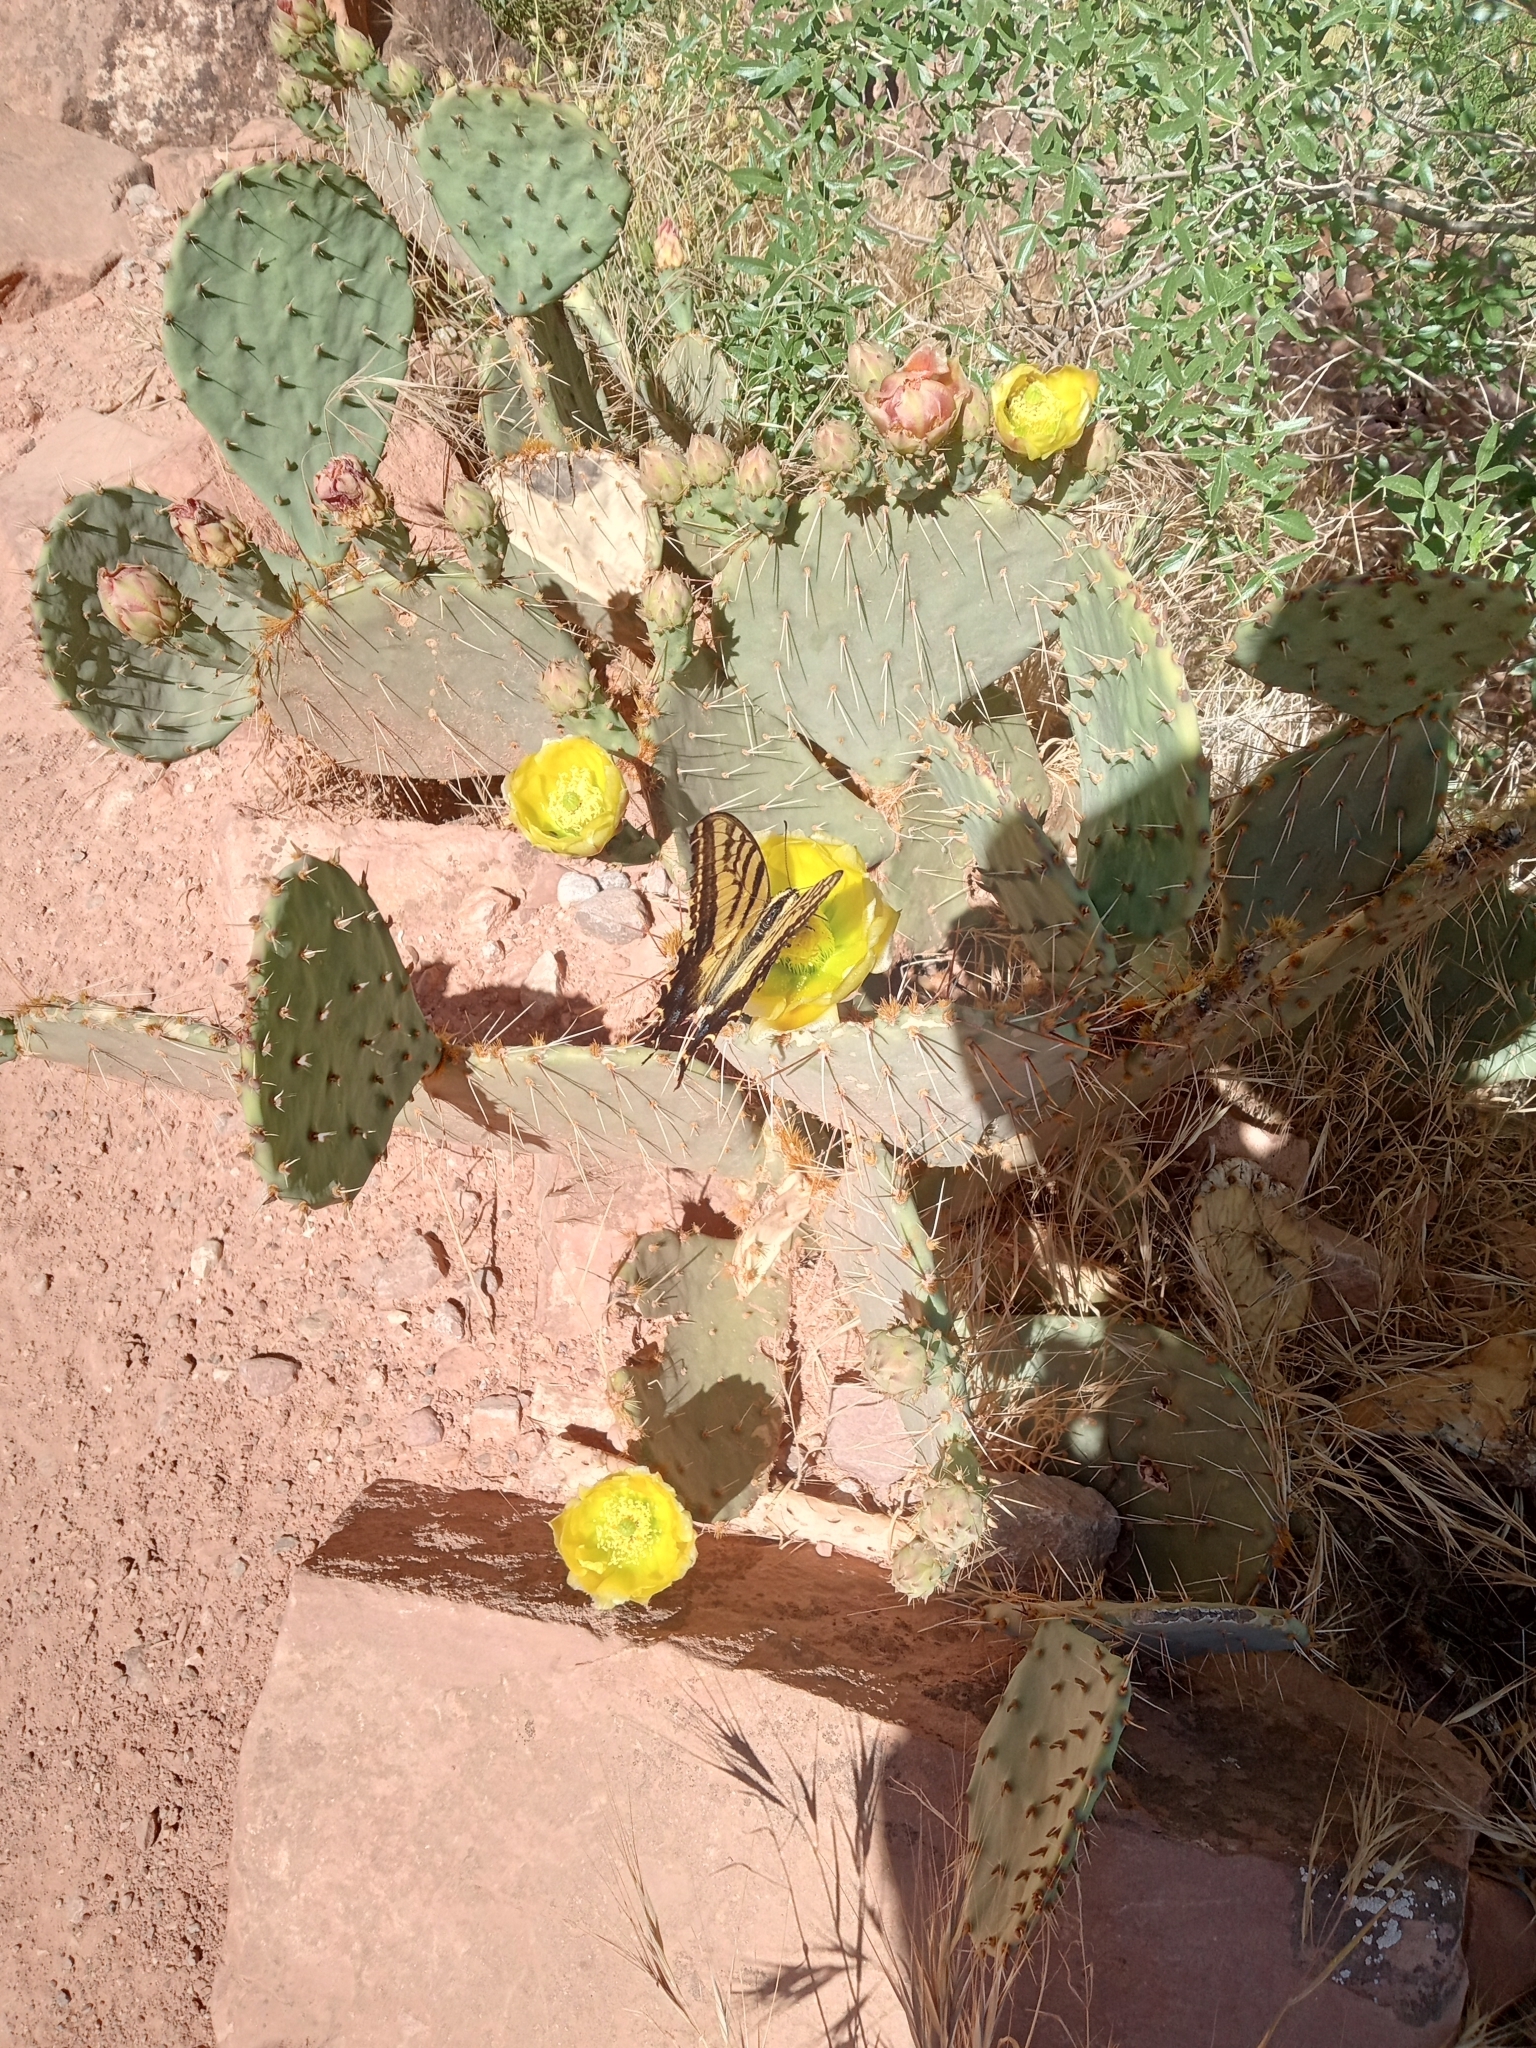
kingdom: Animalia
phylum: Arthropoda
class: Insecta
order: Lepidoptera
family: Papilionidae
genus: Papilio
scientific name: Papilio multicaudata
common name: Two-tailed tiger swallowtail
